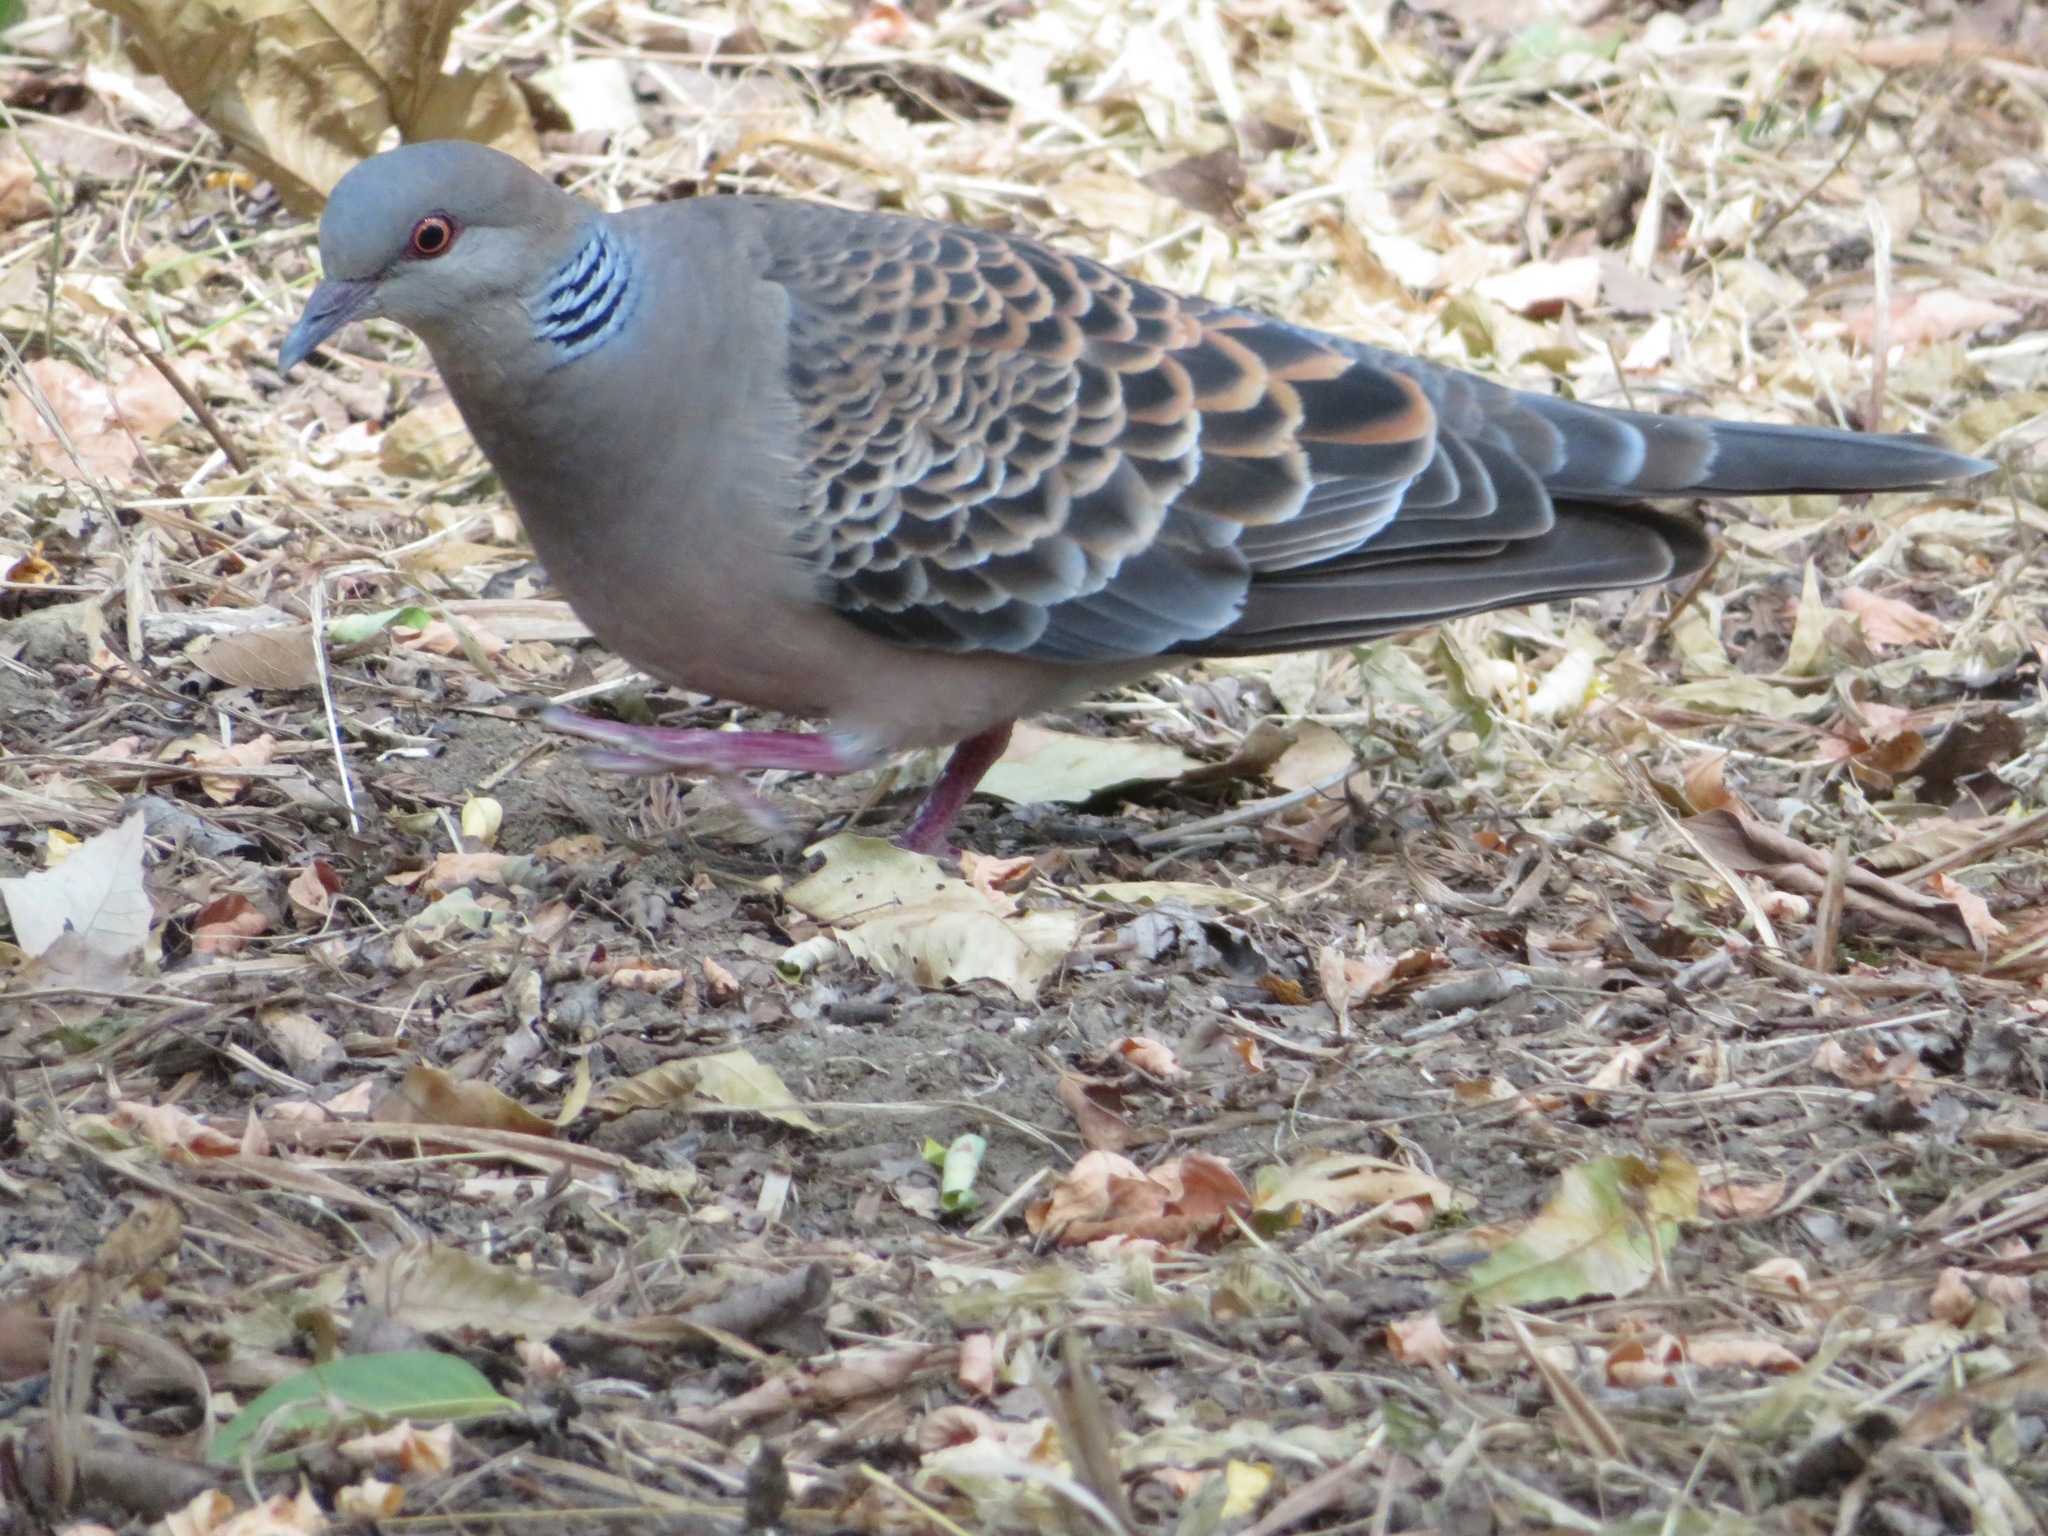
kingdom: Animalia
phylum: Chordata
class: Aves
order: Columbiformes
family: Columbidae
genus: Streptopelia
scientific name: Streptopelia orientalis
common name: Oriental turtle dove
